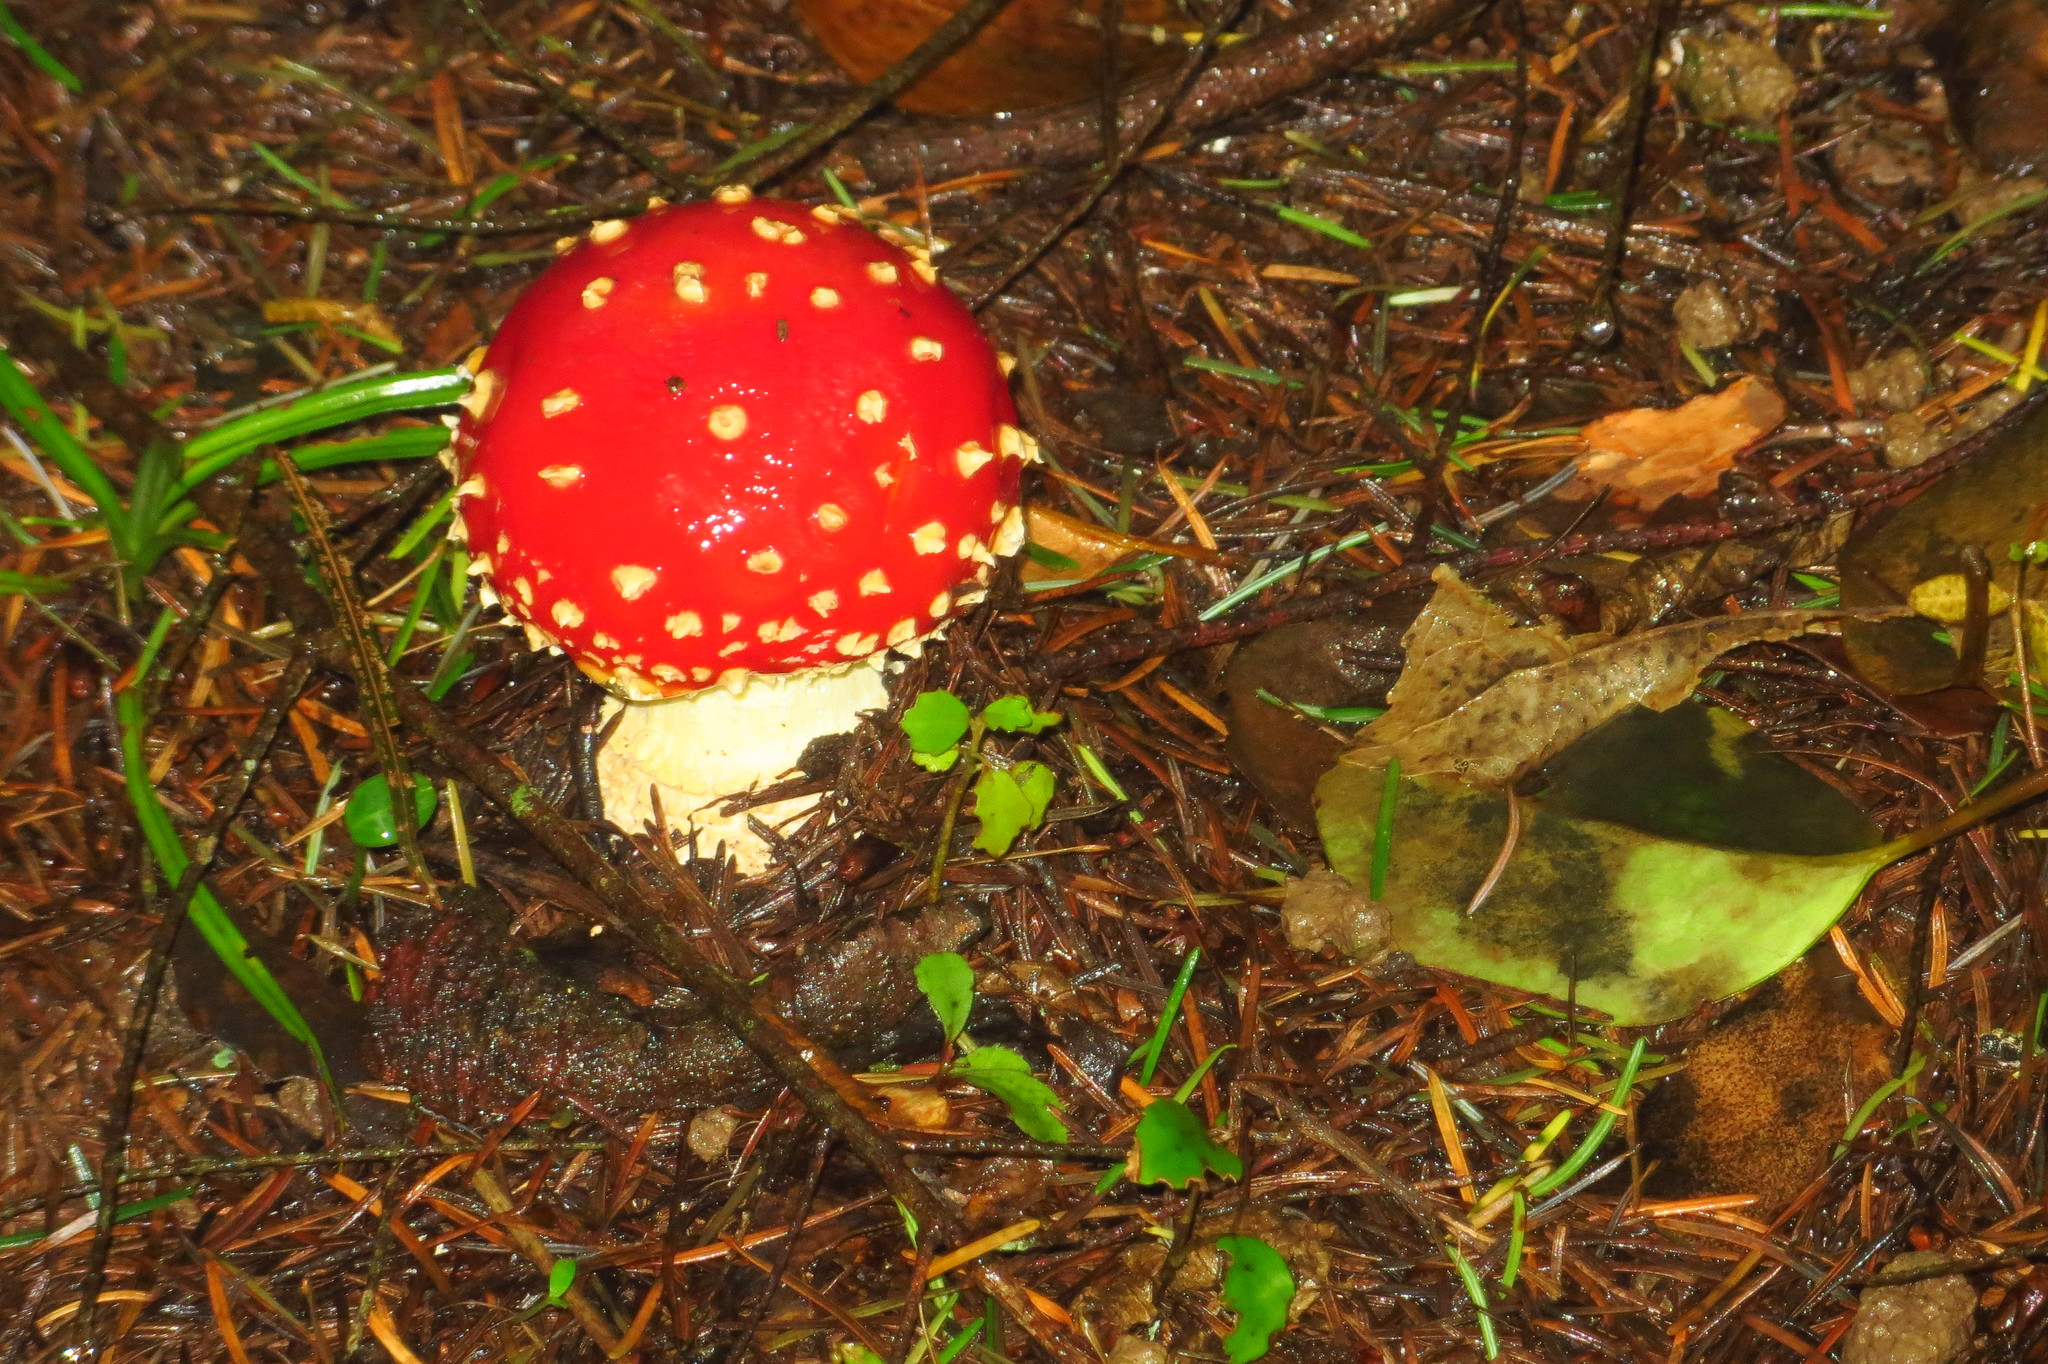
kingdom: Fungi
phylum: Basidiomycota
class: Agaricomycetes
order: Agaricales
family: Amanitaceae
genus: Amanita
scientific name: Amanita muscaria
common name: Fly agaric
